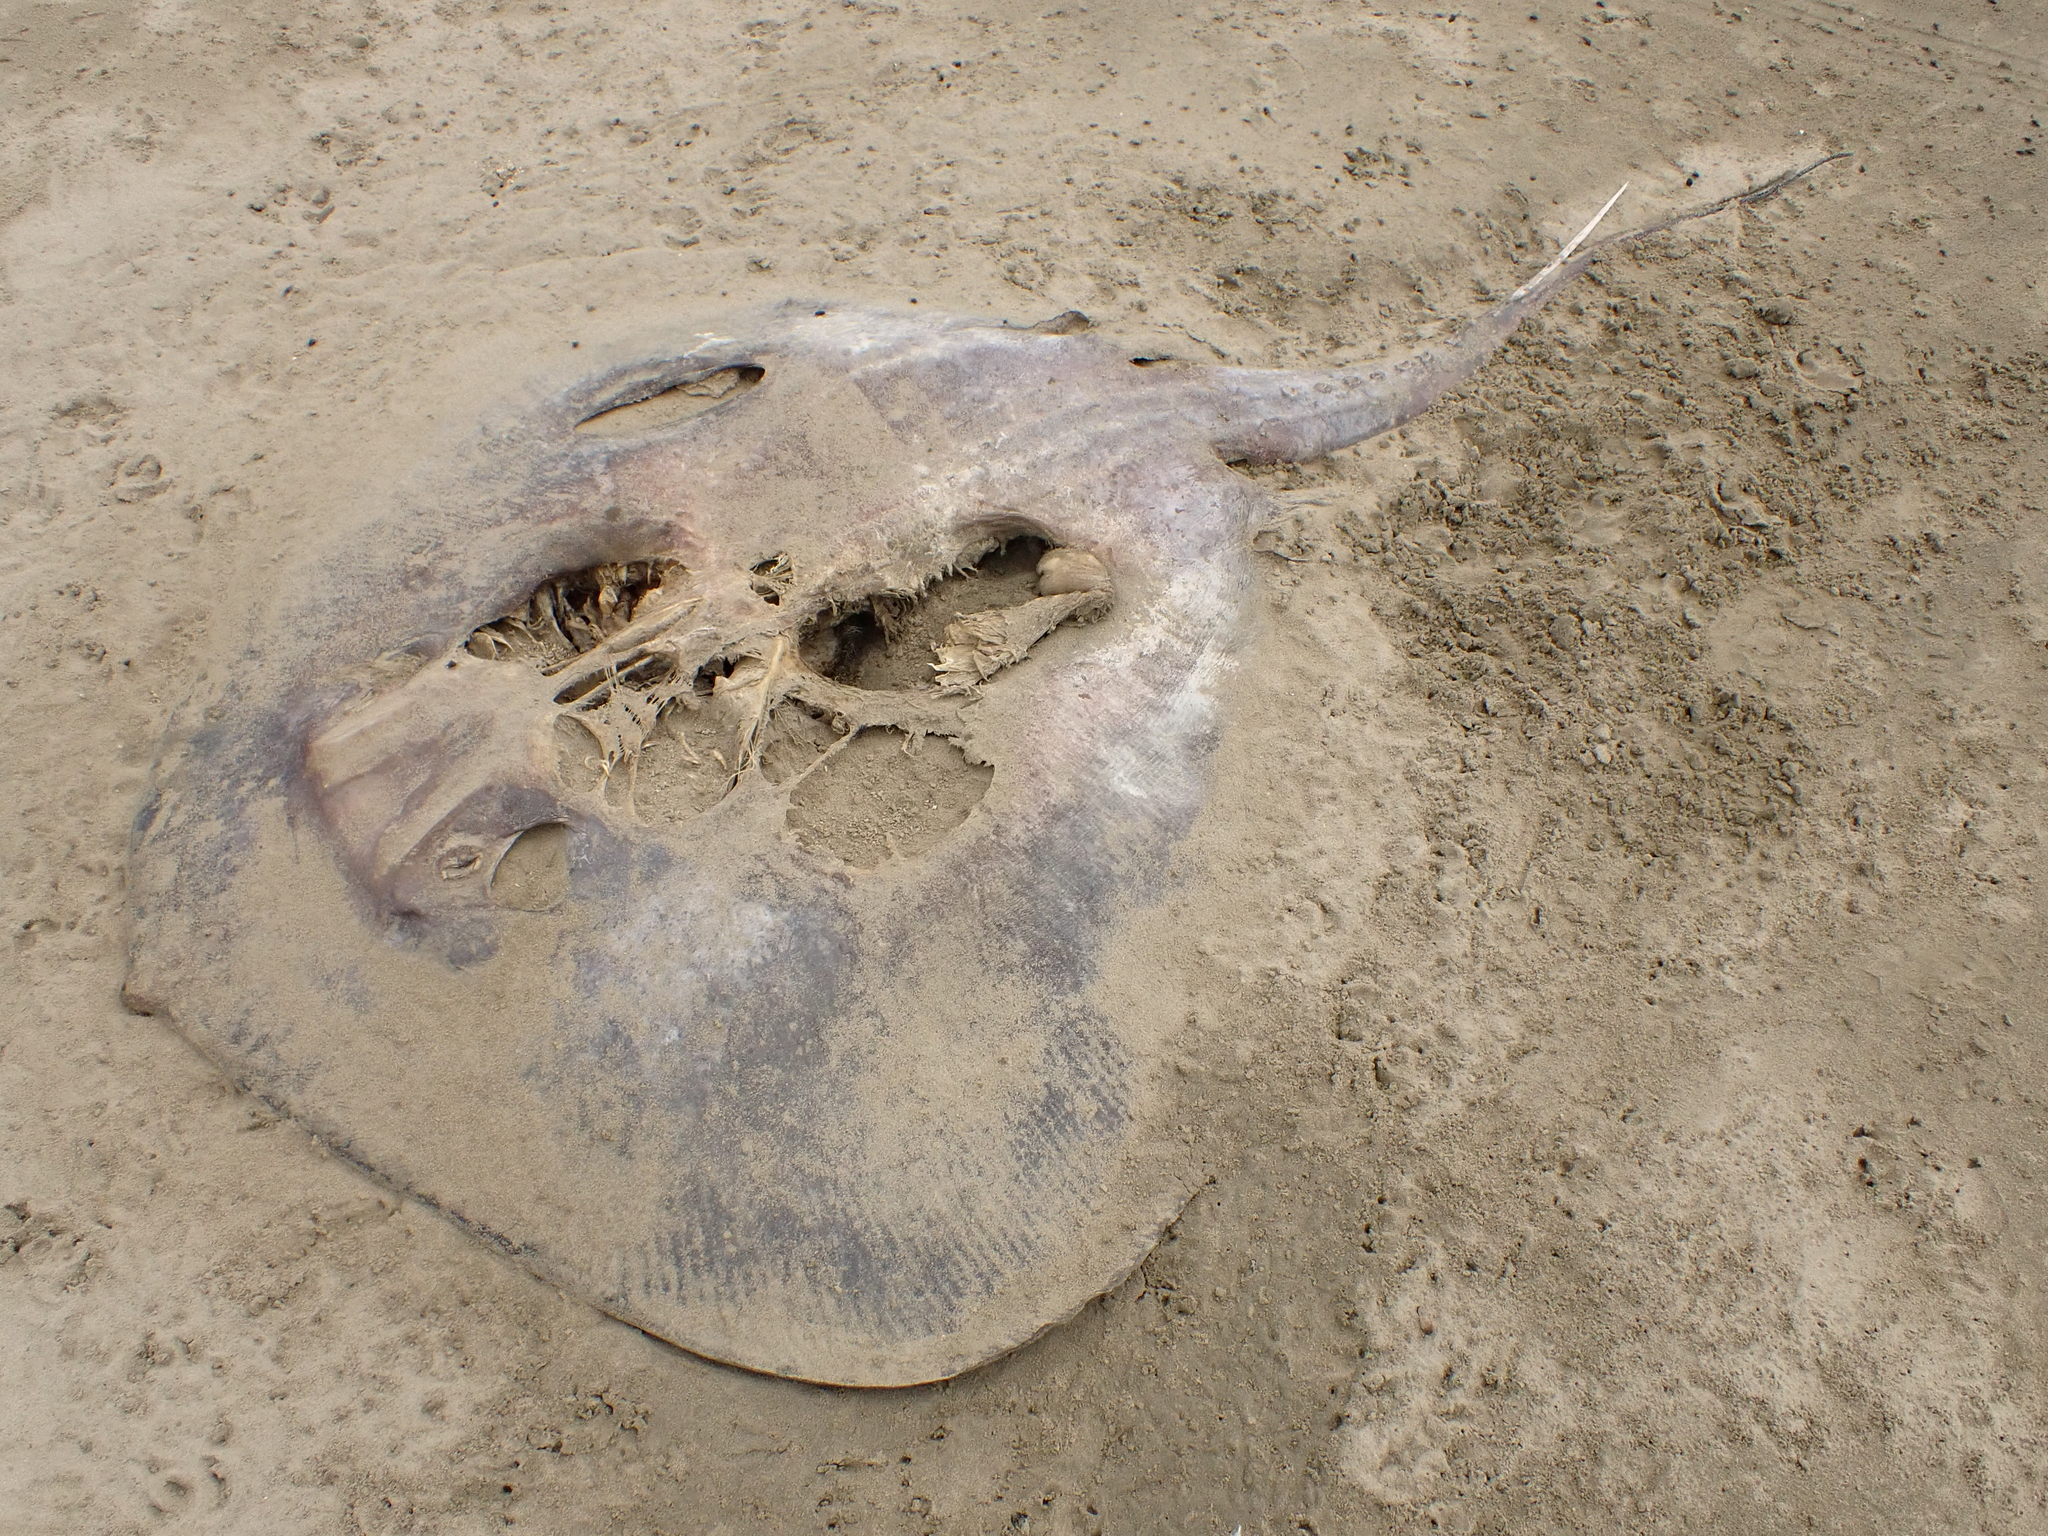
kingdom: Animalia
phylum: Chordata
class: Elasmobranchii
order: Myliobatiformes
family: Dasyatidae
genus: Bathytoshia
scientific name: Bathytoshia brevicaudata
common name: Short-tail stingray
